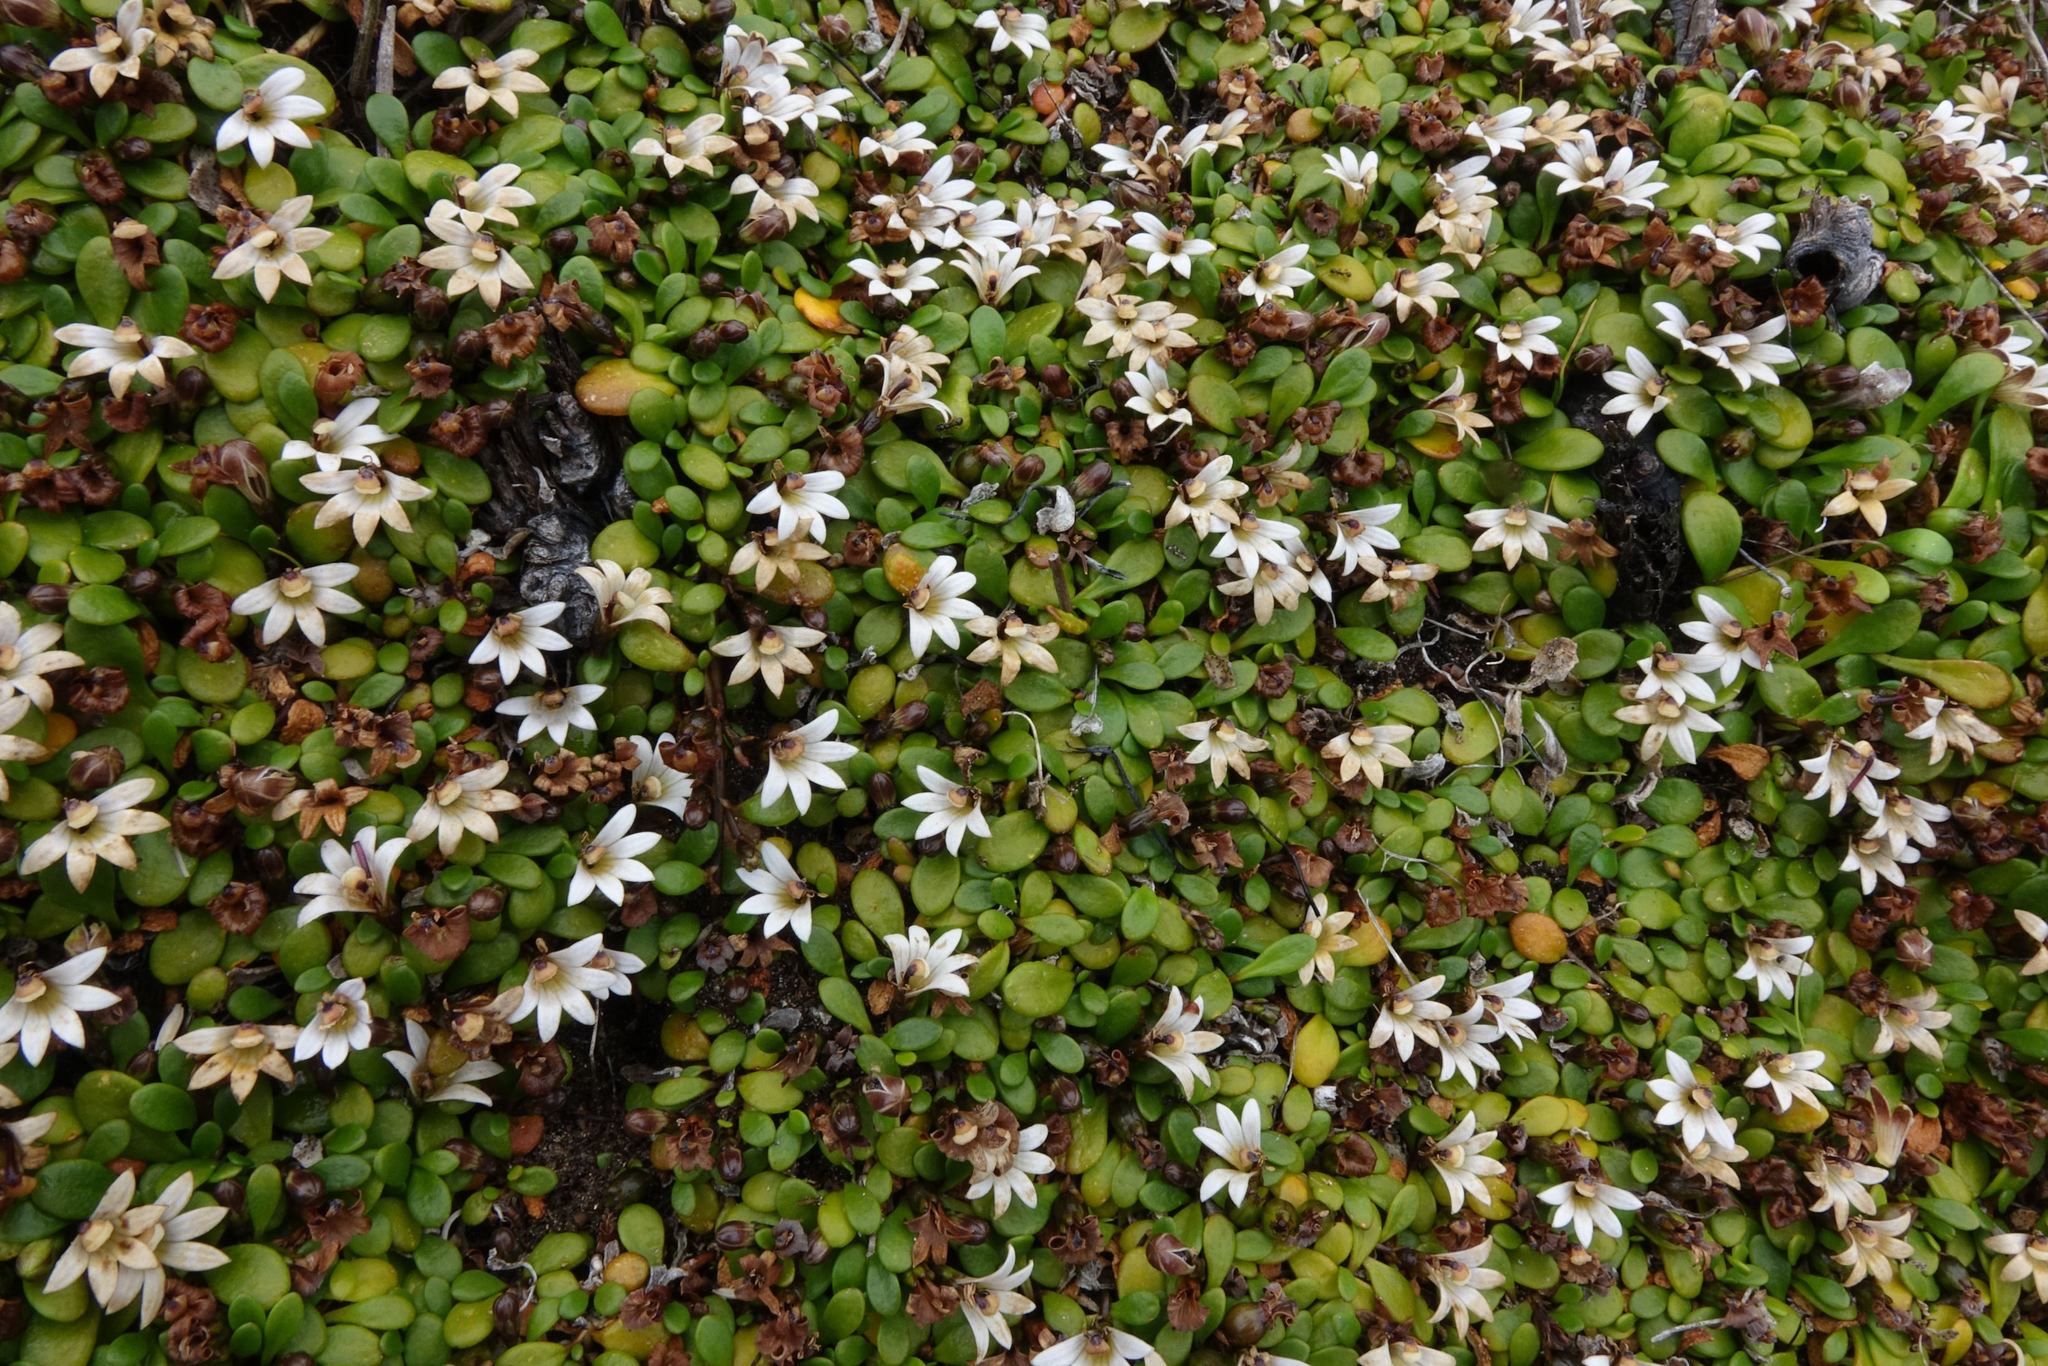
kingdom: Plantae
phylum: Tracheophyta
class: Magnoliopsida
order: Asterales
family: Goodeniaceae
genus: Goodenia
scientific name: Goodenia radicans
